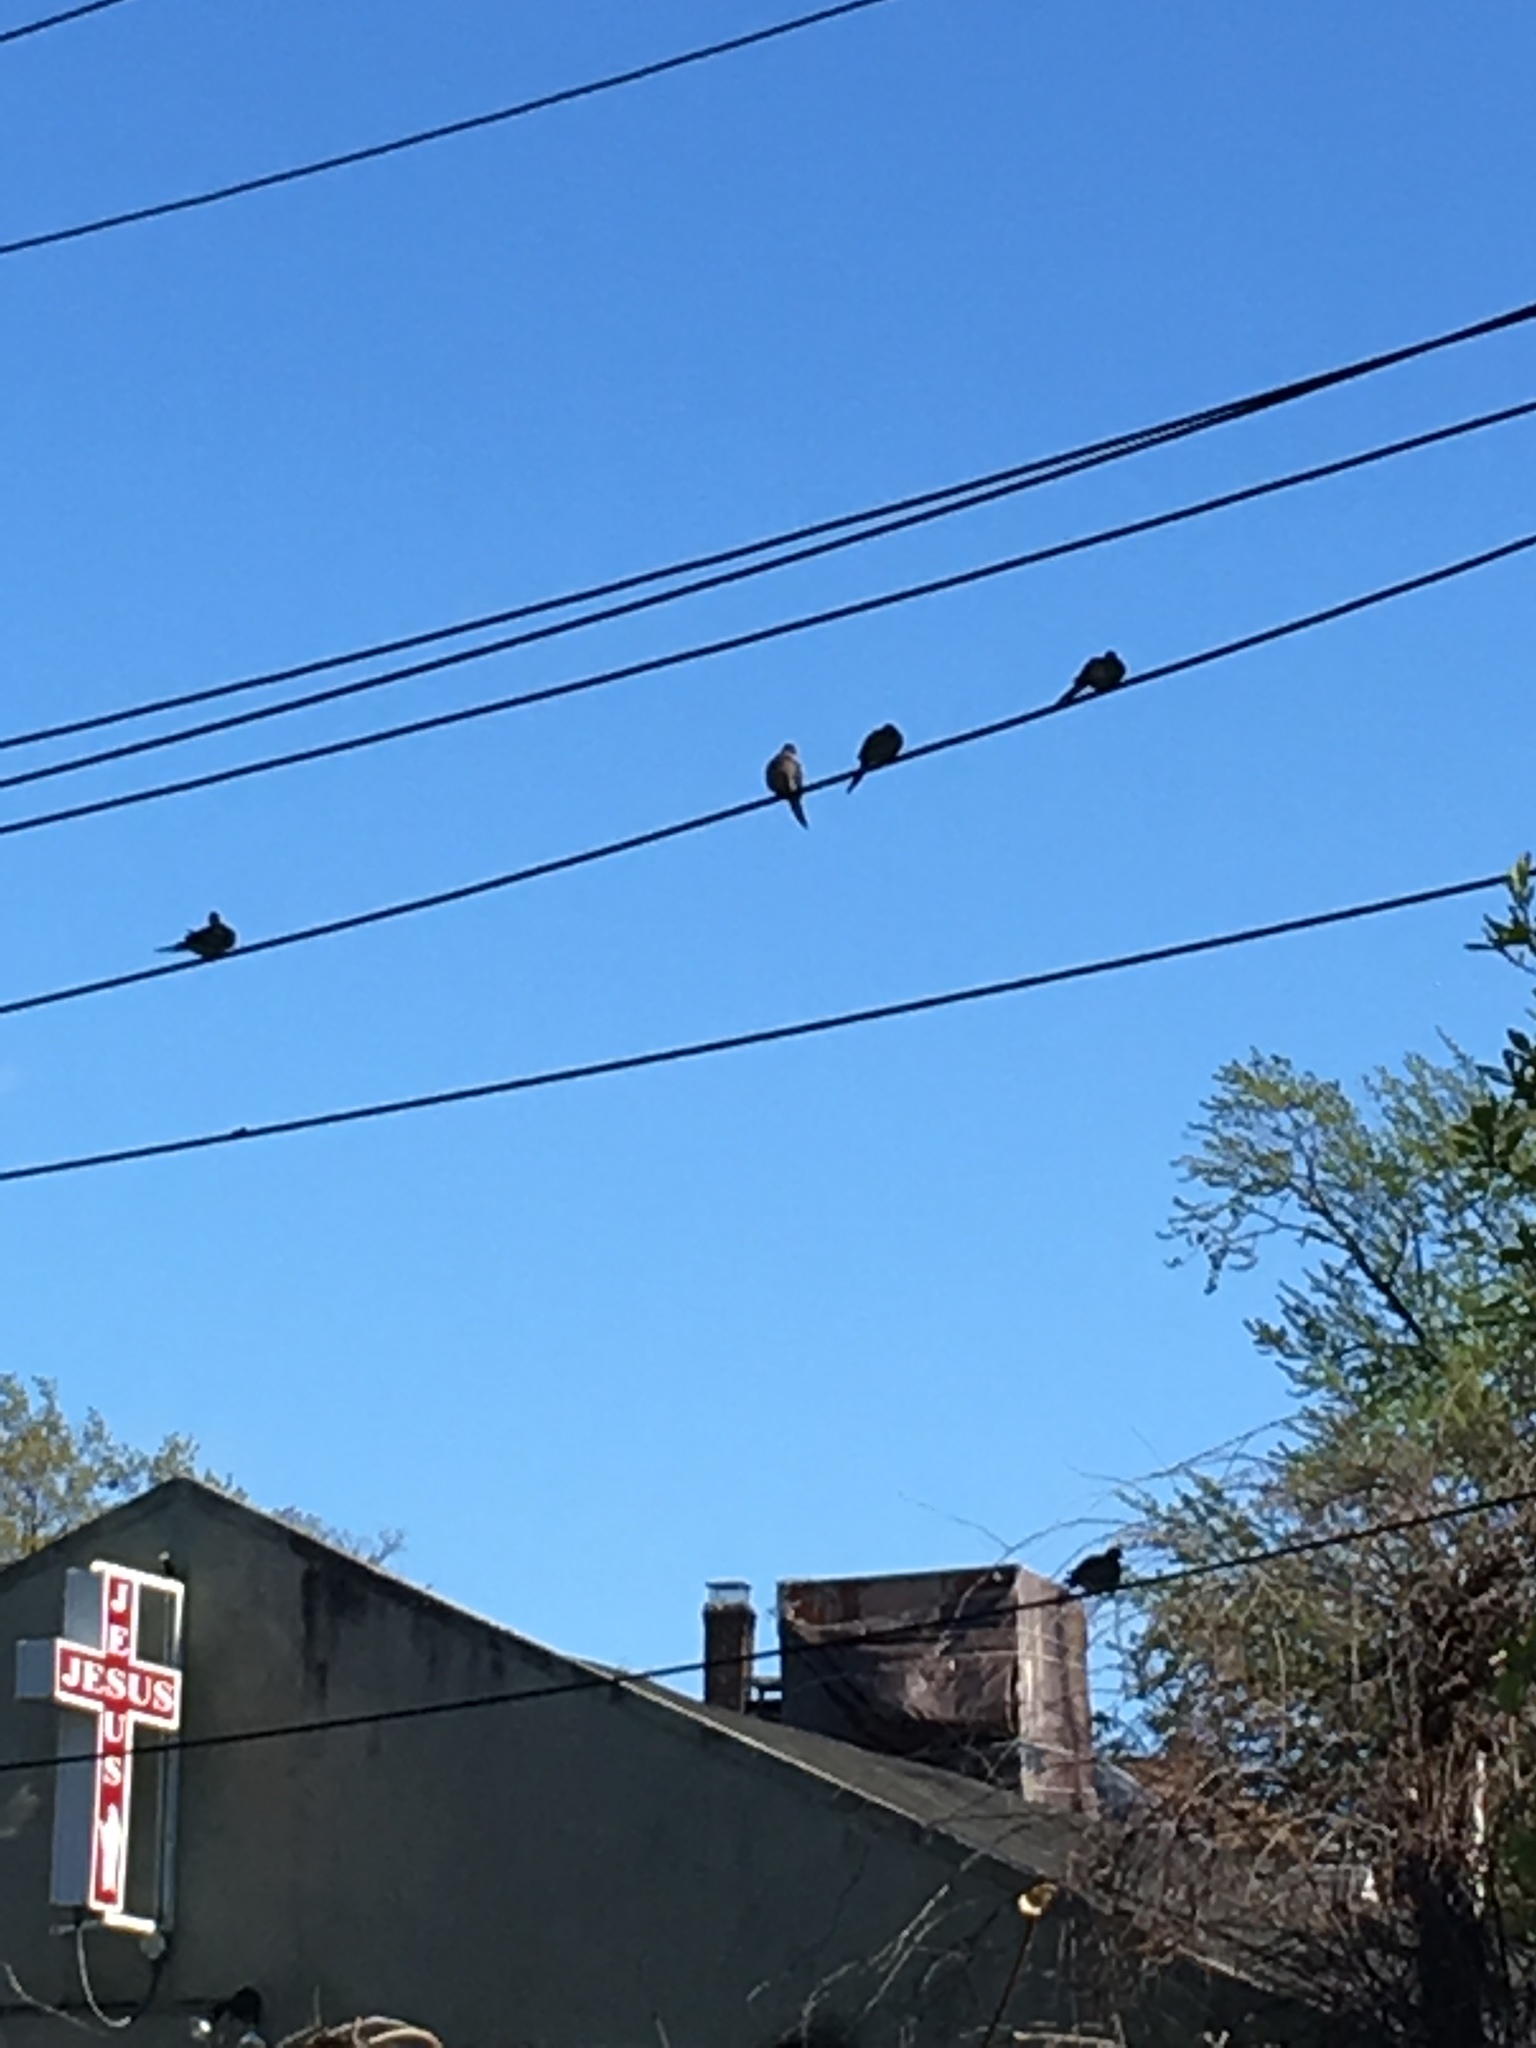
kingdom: Animalia
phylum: Chordata
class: Aves
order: Columbiformes
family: Columbidae
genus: Zenaida
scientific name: Zenaida macroura
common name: Mourning dove
